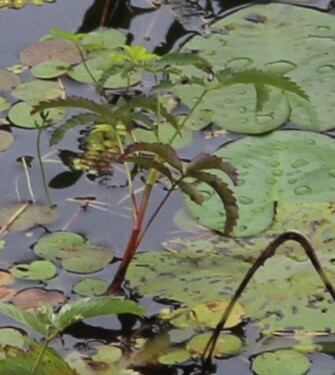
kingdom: Plantae
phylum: Tracheophyta
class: Magnoliopsida
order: Rosales
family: Rosaceae
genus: Comarum
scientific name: Comarum palustre
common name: Marsh cinquefoil
